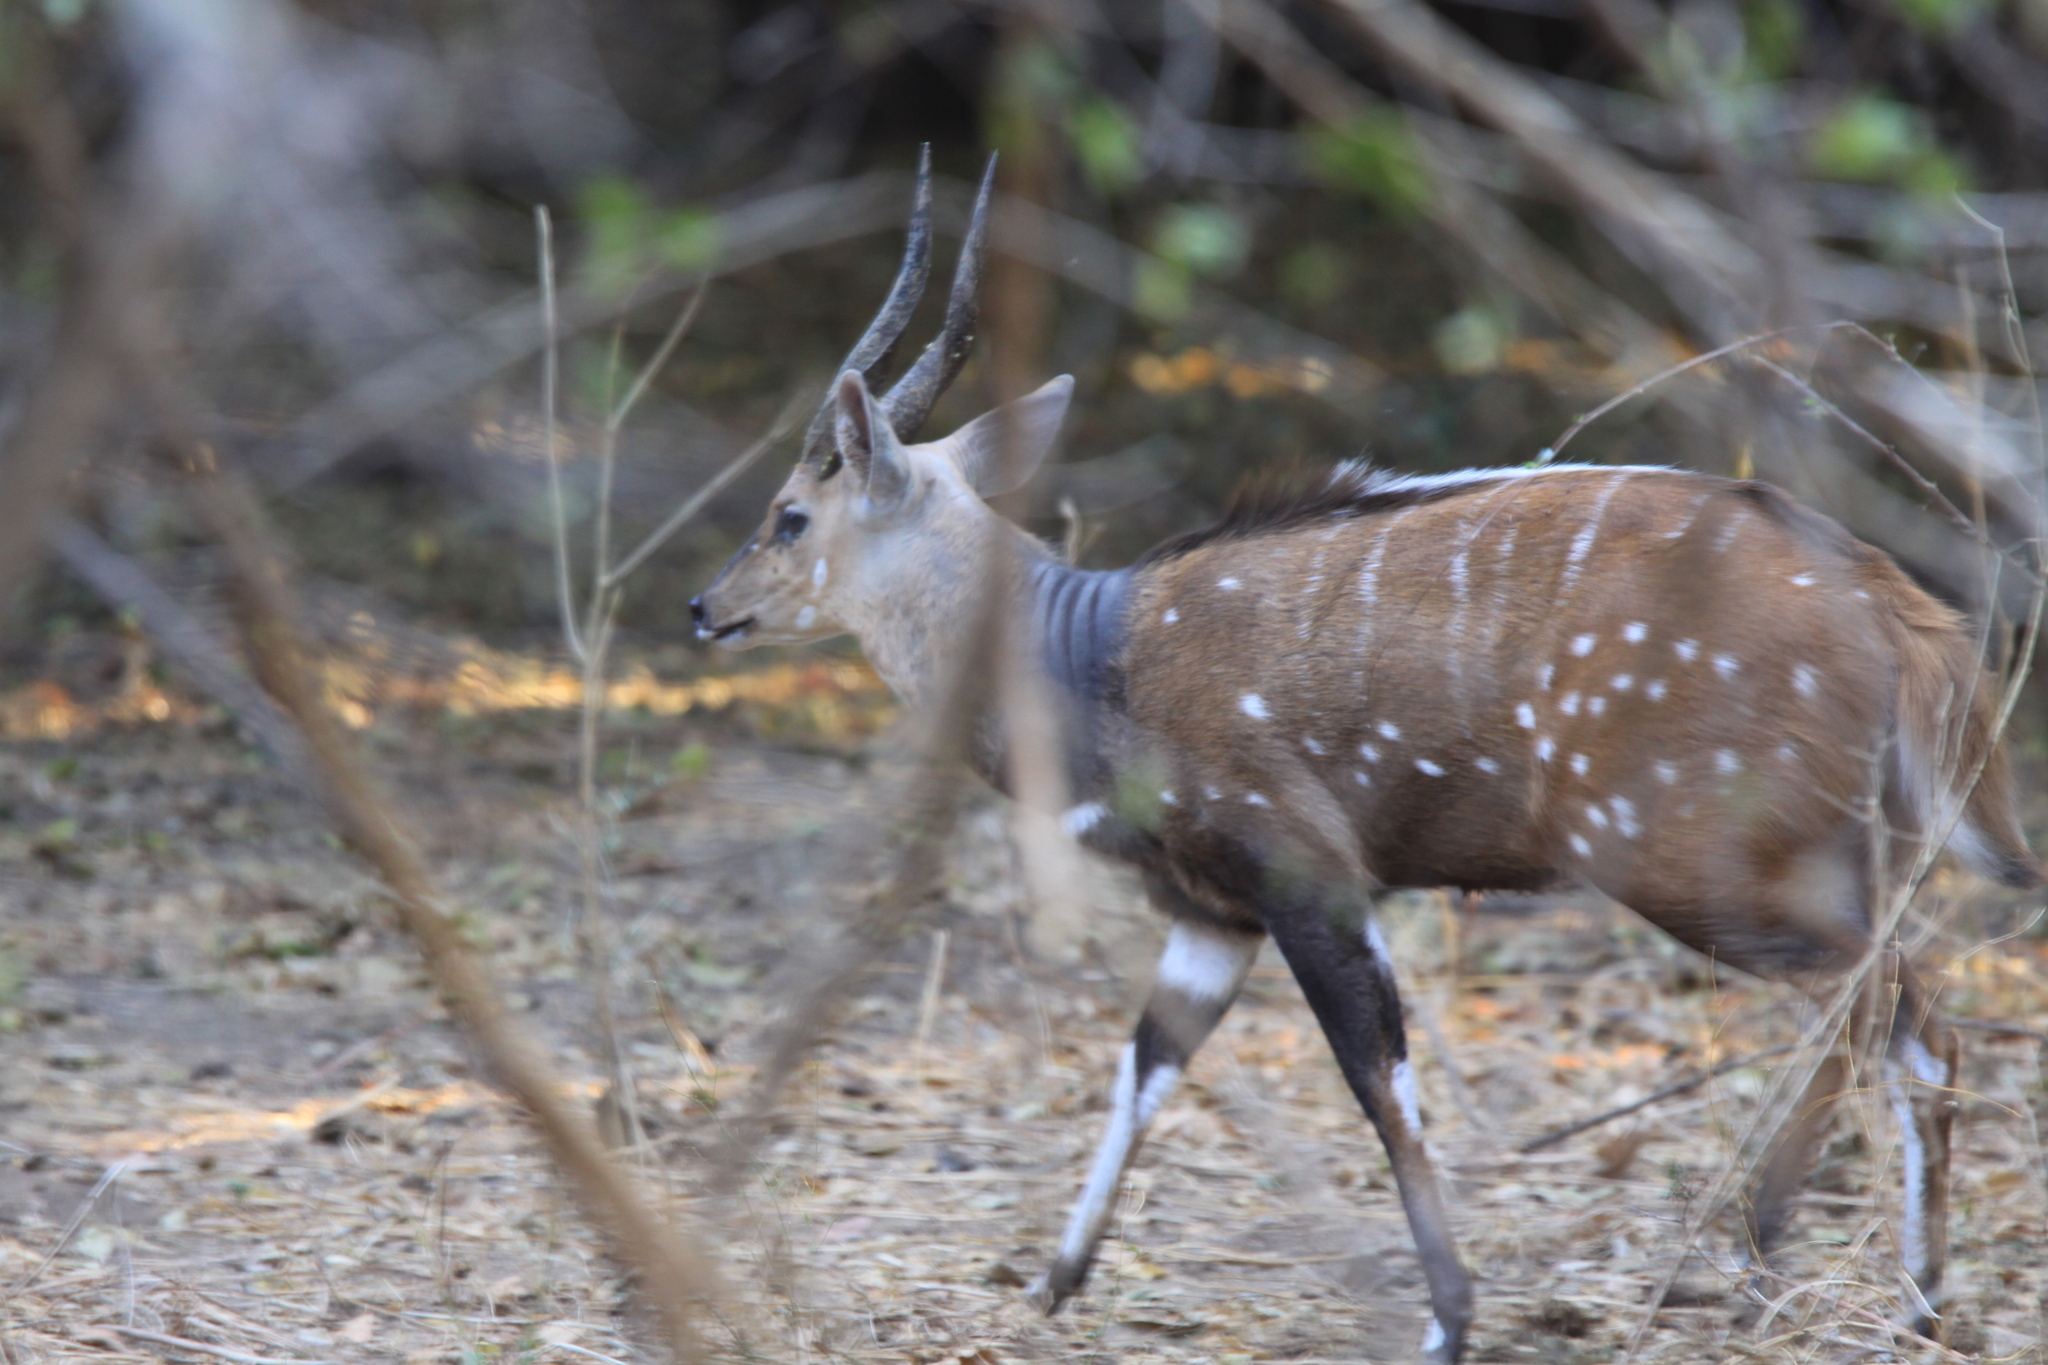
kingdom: Animalia
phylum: Chordata
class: Mammalia
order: Artiodactyla
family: Bovidae
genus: Tragelaphus
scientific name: Tragelaphus scriptus
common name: Bushbuck
